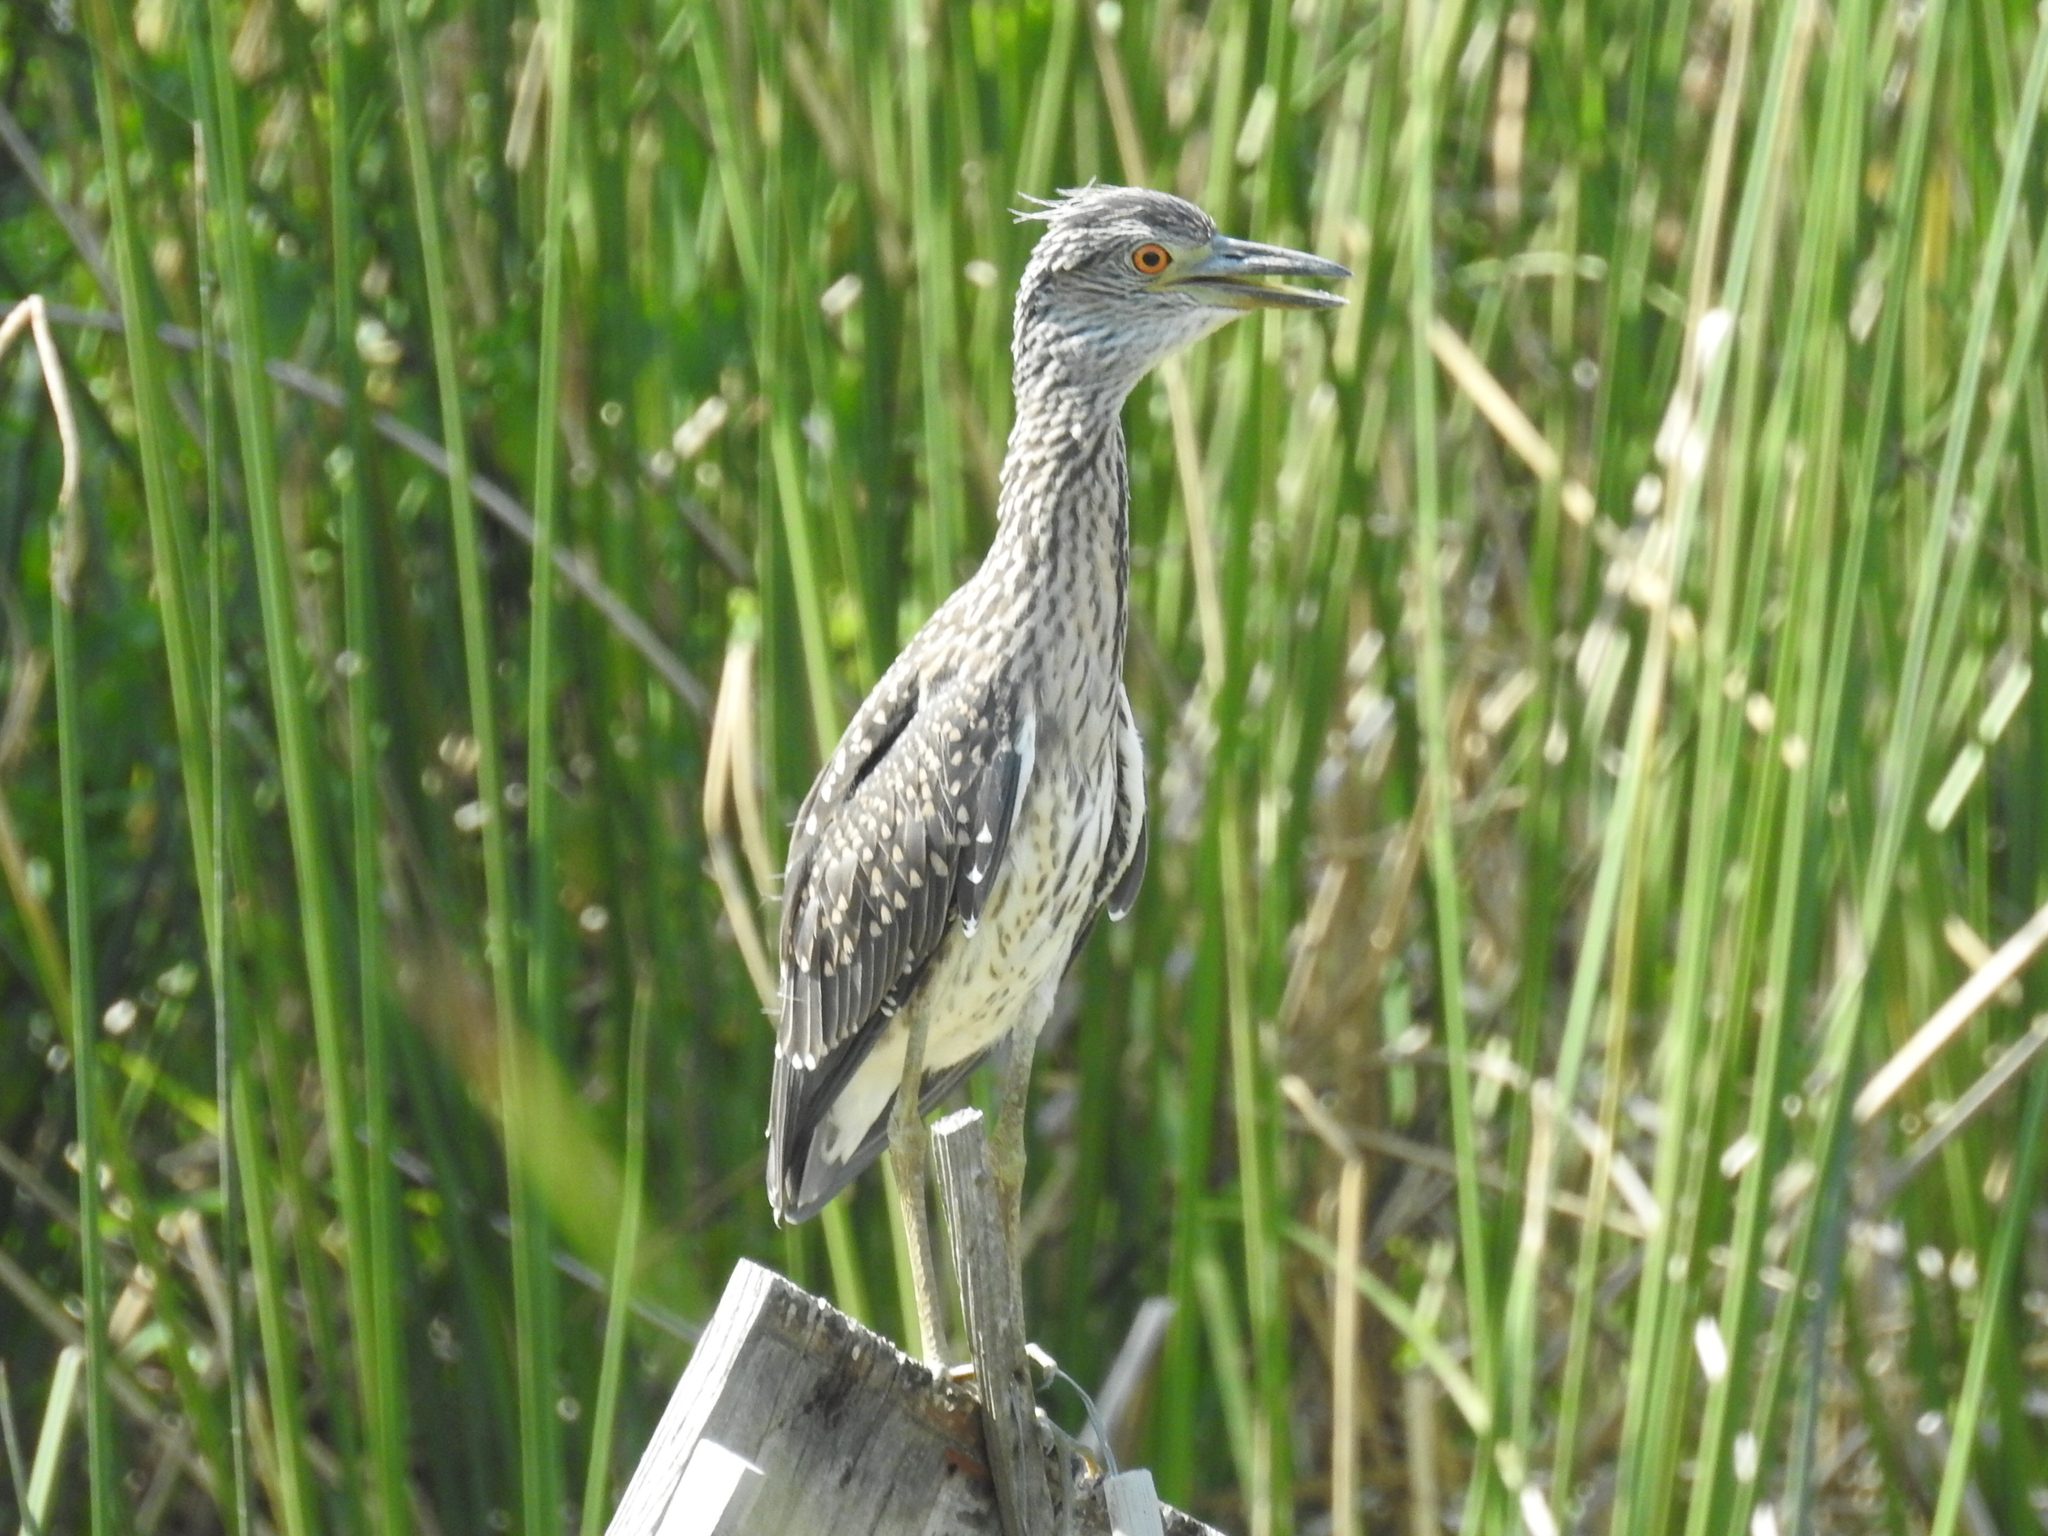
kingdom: Animalia
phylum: Chordata
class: Aves
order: Pelecaniformes
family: Ardeidae
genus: Nyctanassa
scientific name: Nyctanassa violacea
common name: Yellow-crowned night heron
